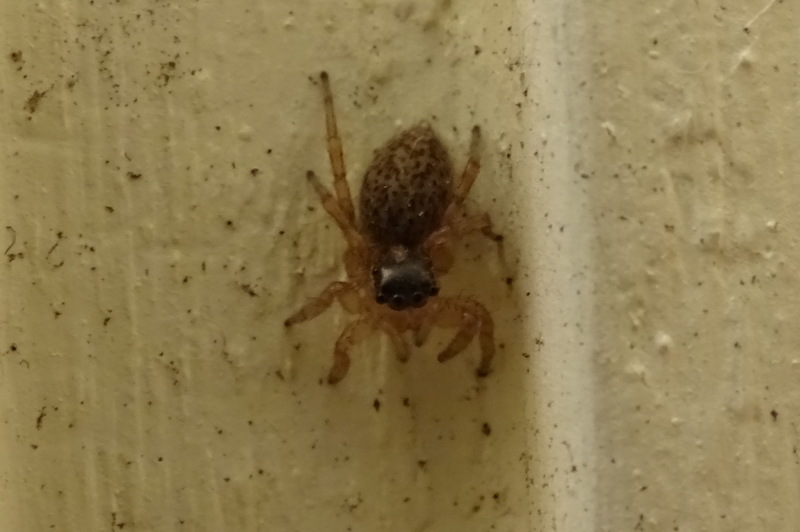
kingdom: Animalia
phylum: Arthropoda
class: Arachnida
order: Araneae
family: Salticidae
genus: Saitis
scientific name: Saitis barbipes
